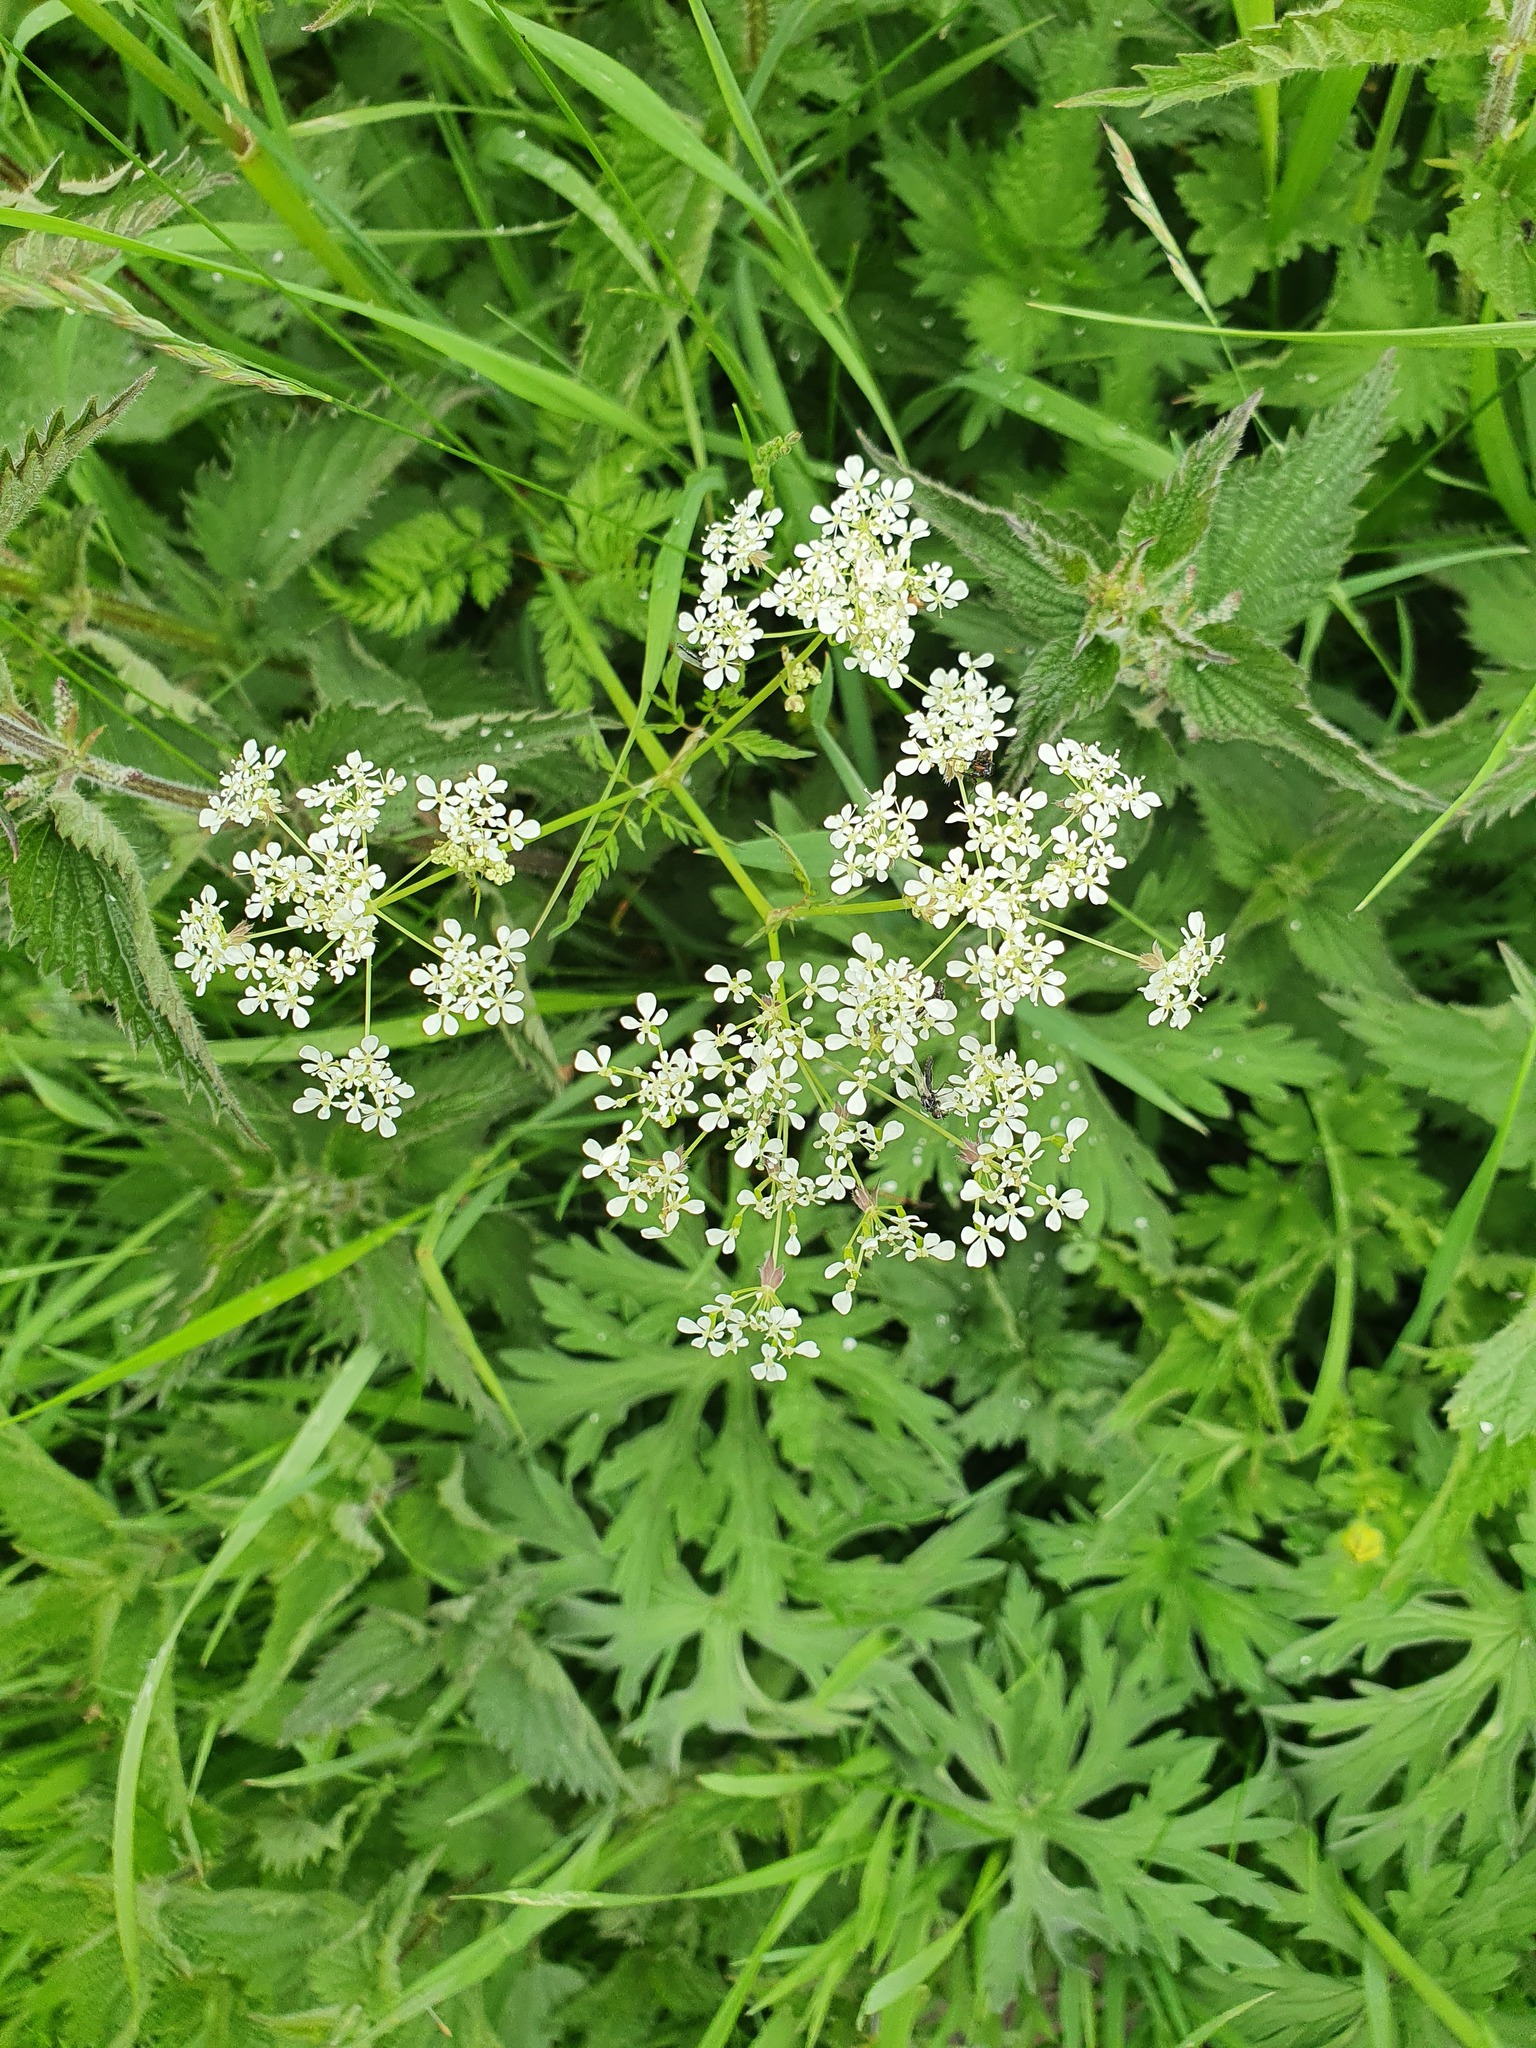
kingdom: Plantae
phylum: Tracheophyta
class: Magnoliopsida
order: Apiales
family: Apiaceae
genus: Anthriscus
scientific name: Anthriscus sylvestris
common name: Cow parsley
